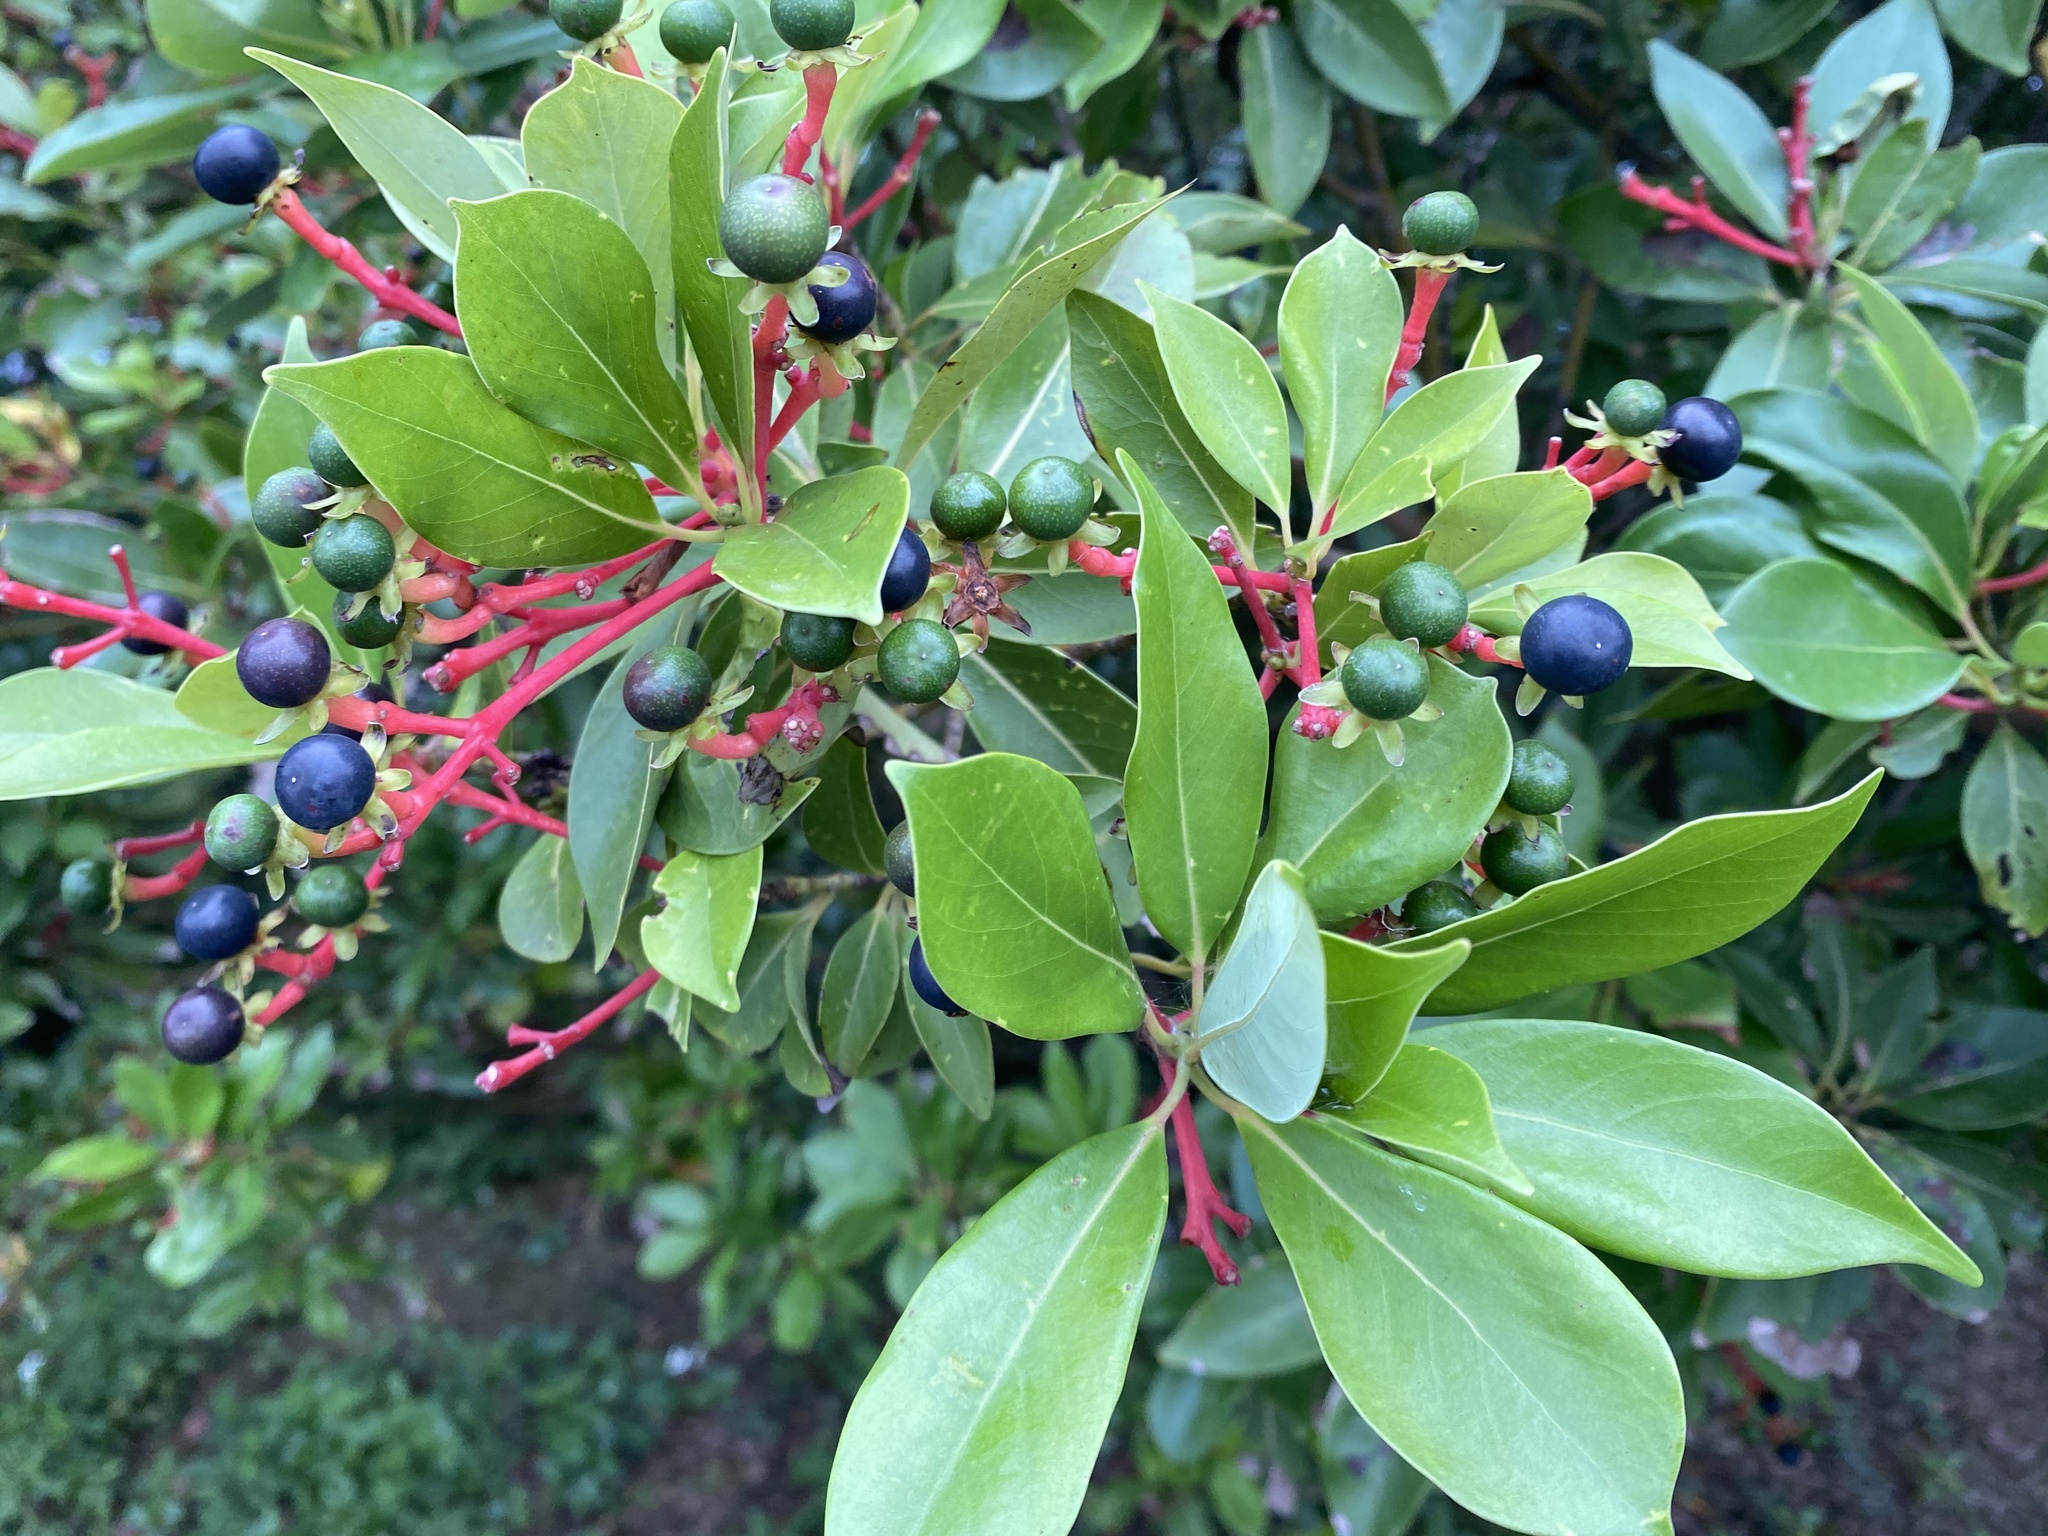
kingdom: Plantae
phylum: Tracheophyta
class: Magnoliopsida
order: Laurales
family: Lauraceae
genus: Machilus
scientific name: Machilus thunbergii
